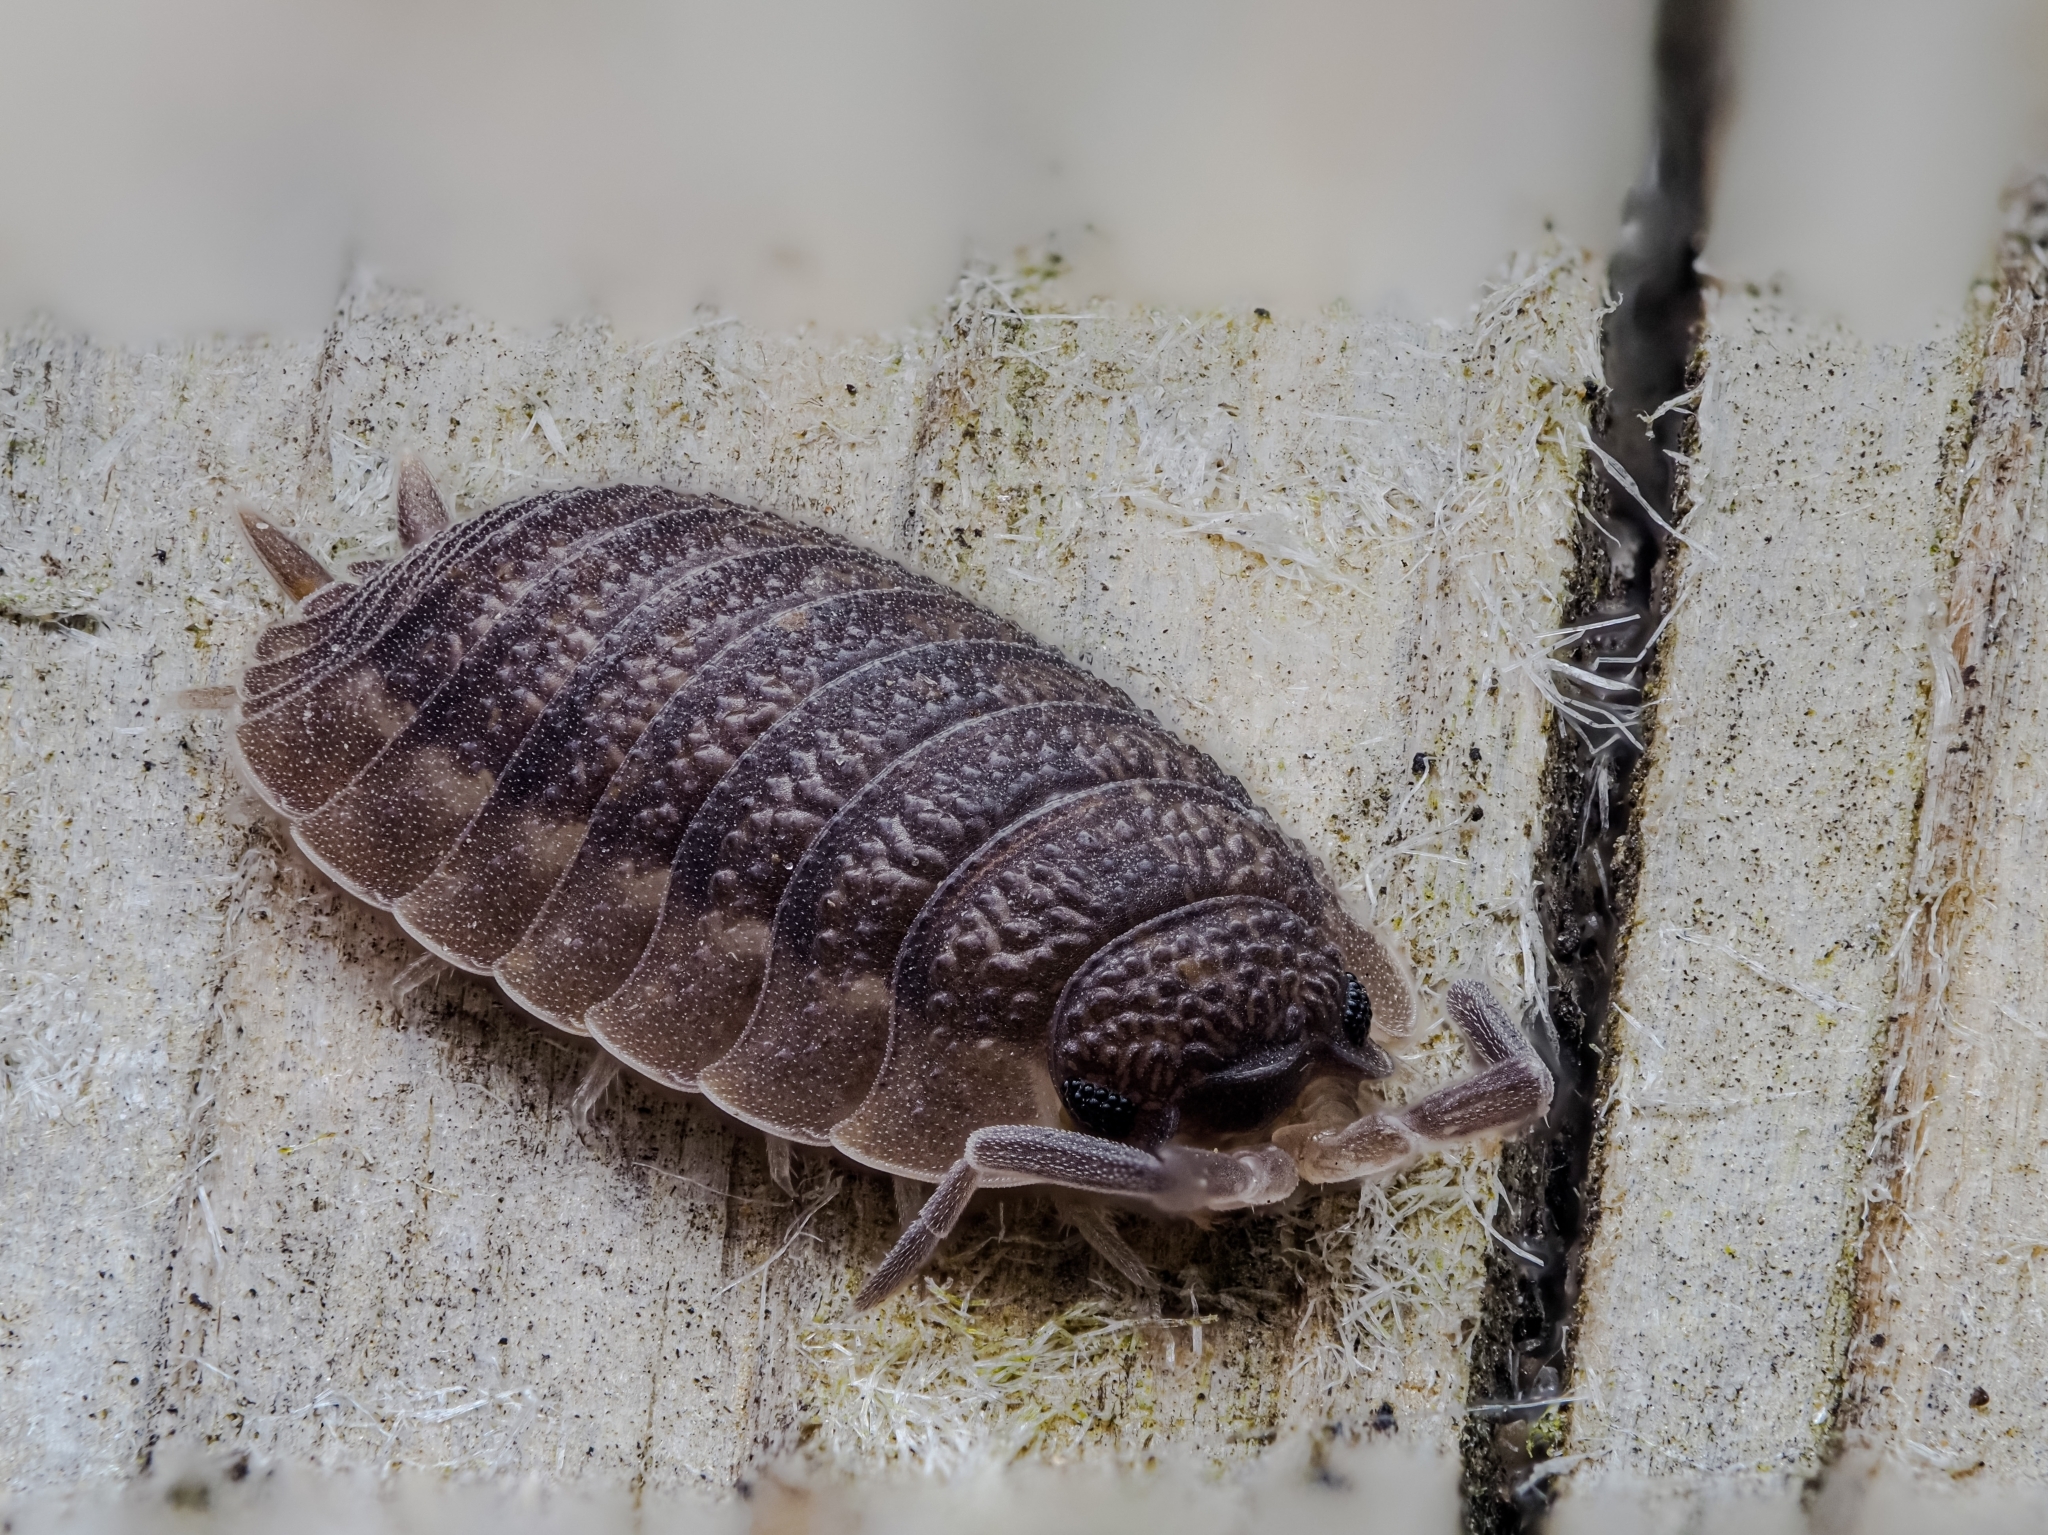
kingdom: Animalia
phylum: Arthropoda
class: Malacostraca
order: Isopoda
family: Porcellionidae
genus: Porcellio
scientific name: Porcellio scaber
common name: Common rough woodlouse
